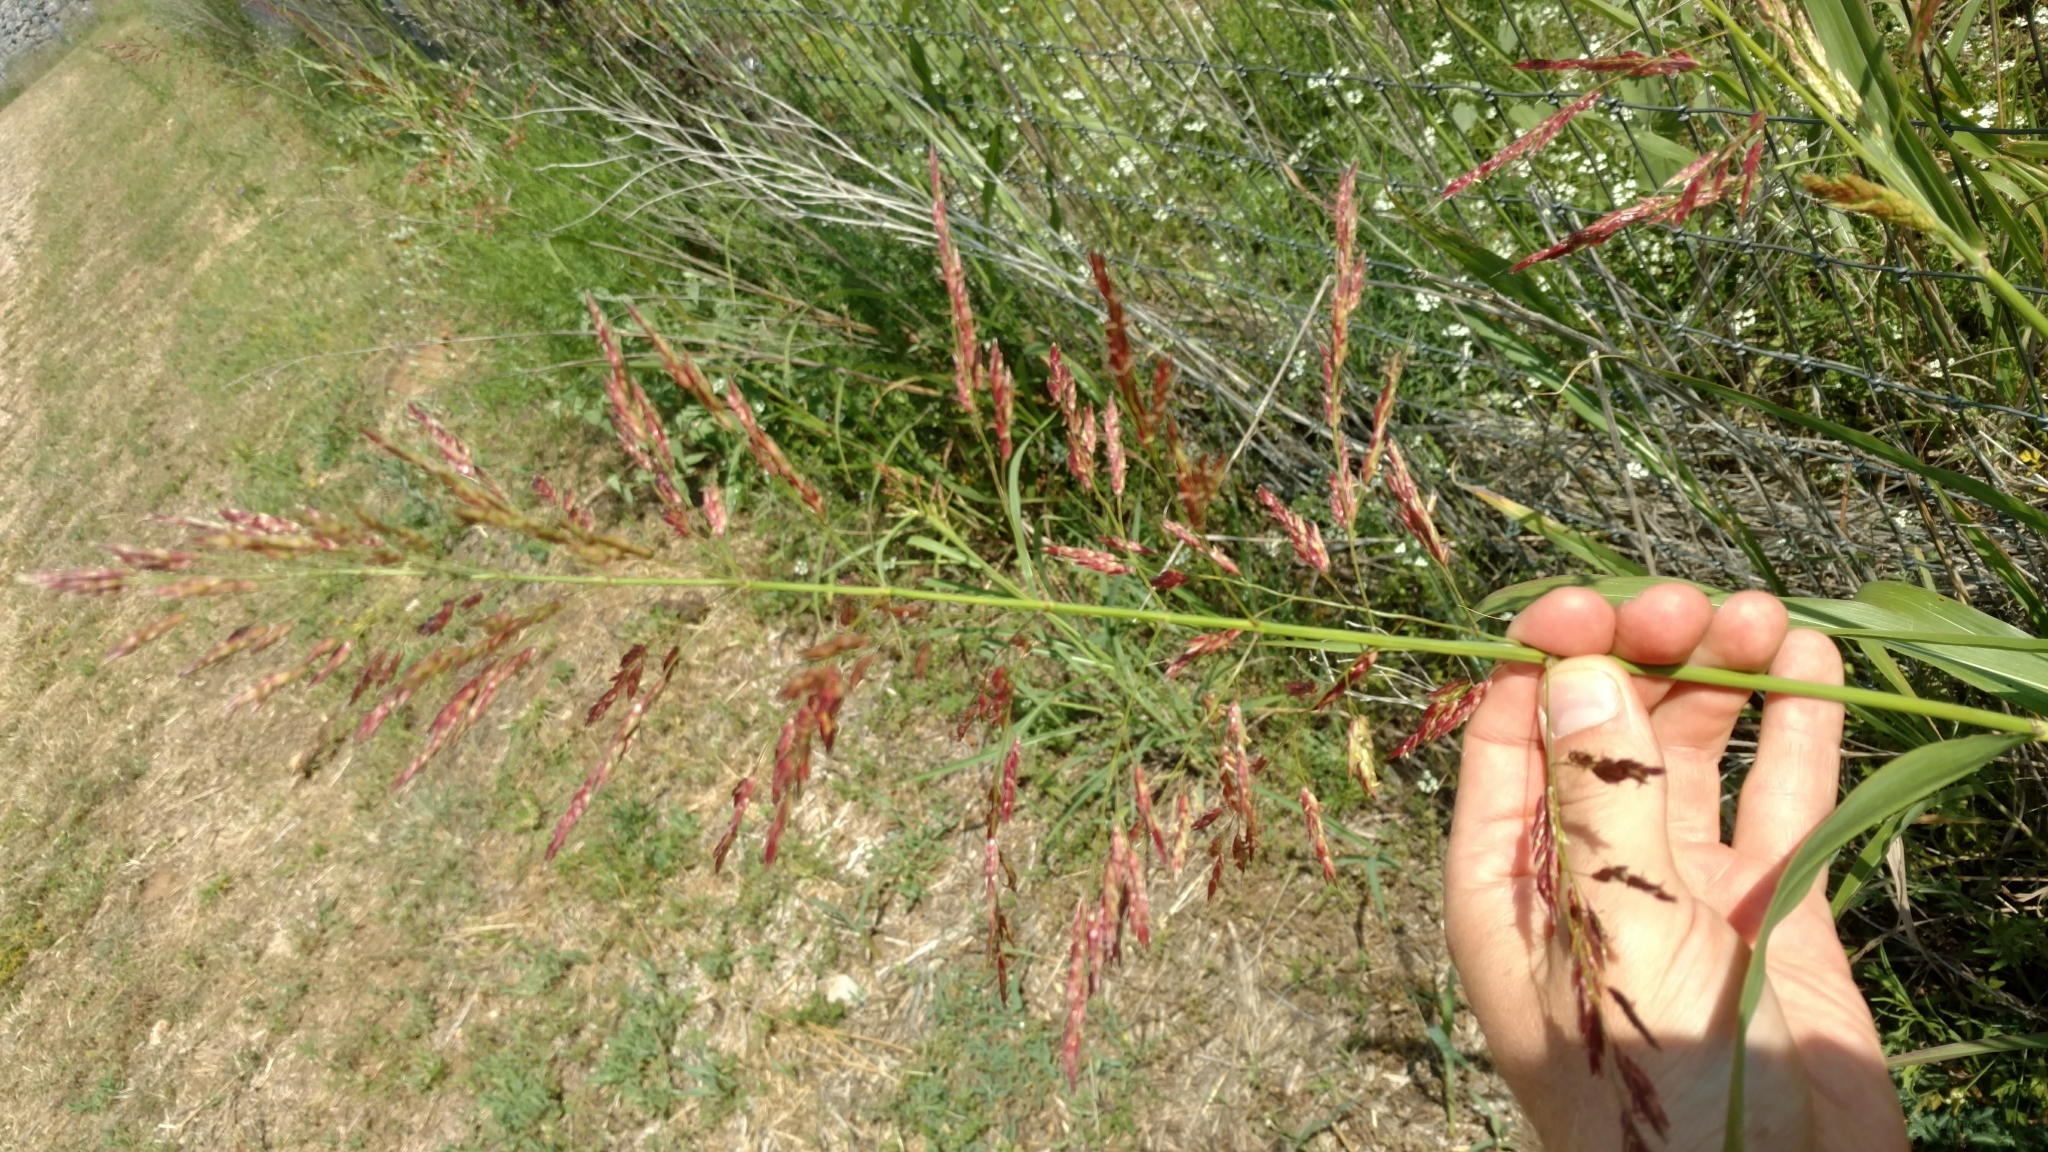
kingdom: Plantae
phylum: Tracheophyta
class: Liliopsida
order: Poales
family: Poaceae
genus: Sorghum
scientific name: Sorghum halepense
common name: Johnson-grass
